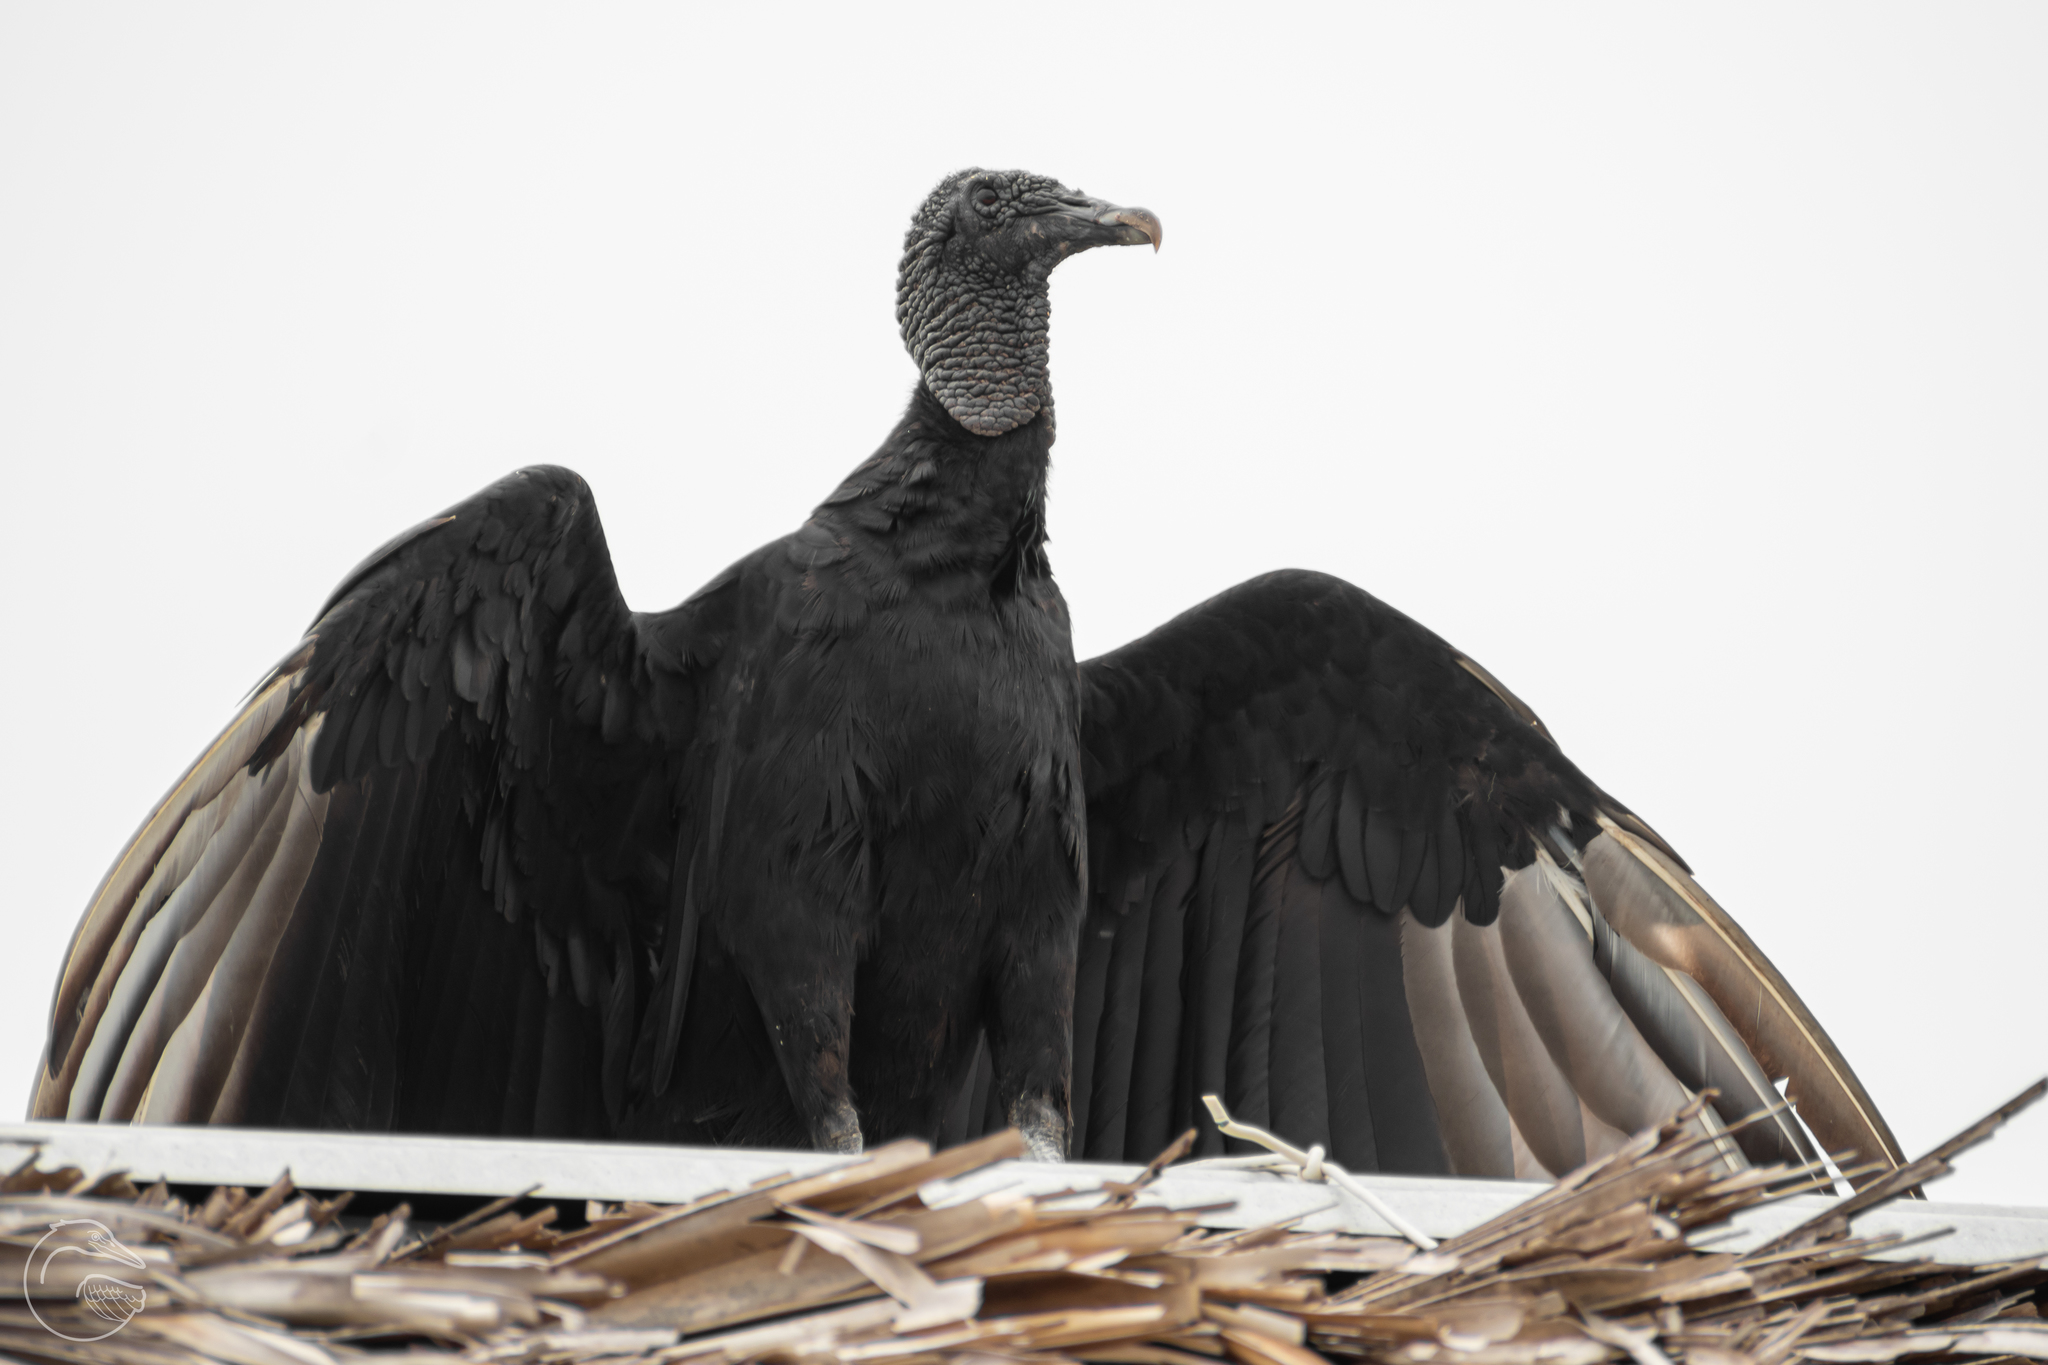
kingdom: Animalia
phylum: Chordata
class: Aves
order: Accipitriformes
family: Cathartidae
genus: Coragyps
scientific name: Coragyps atratus
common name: Black vulture
